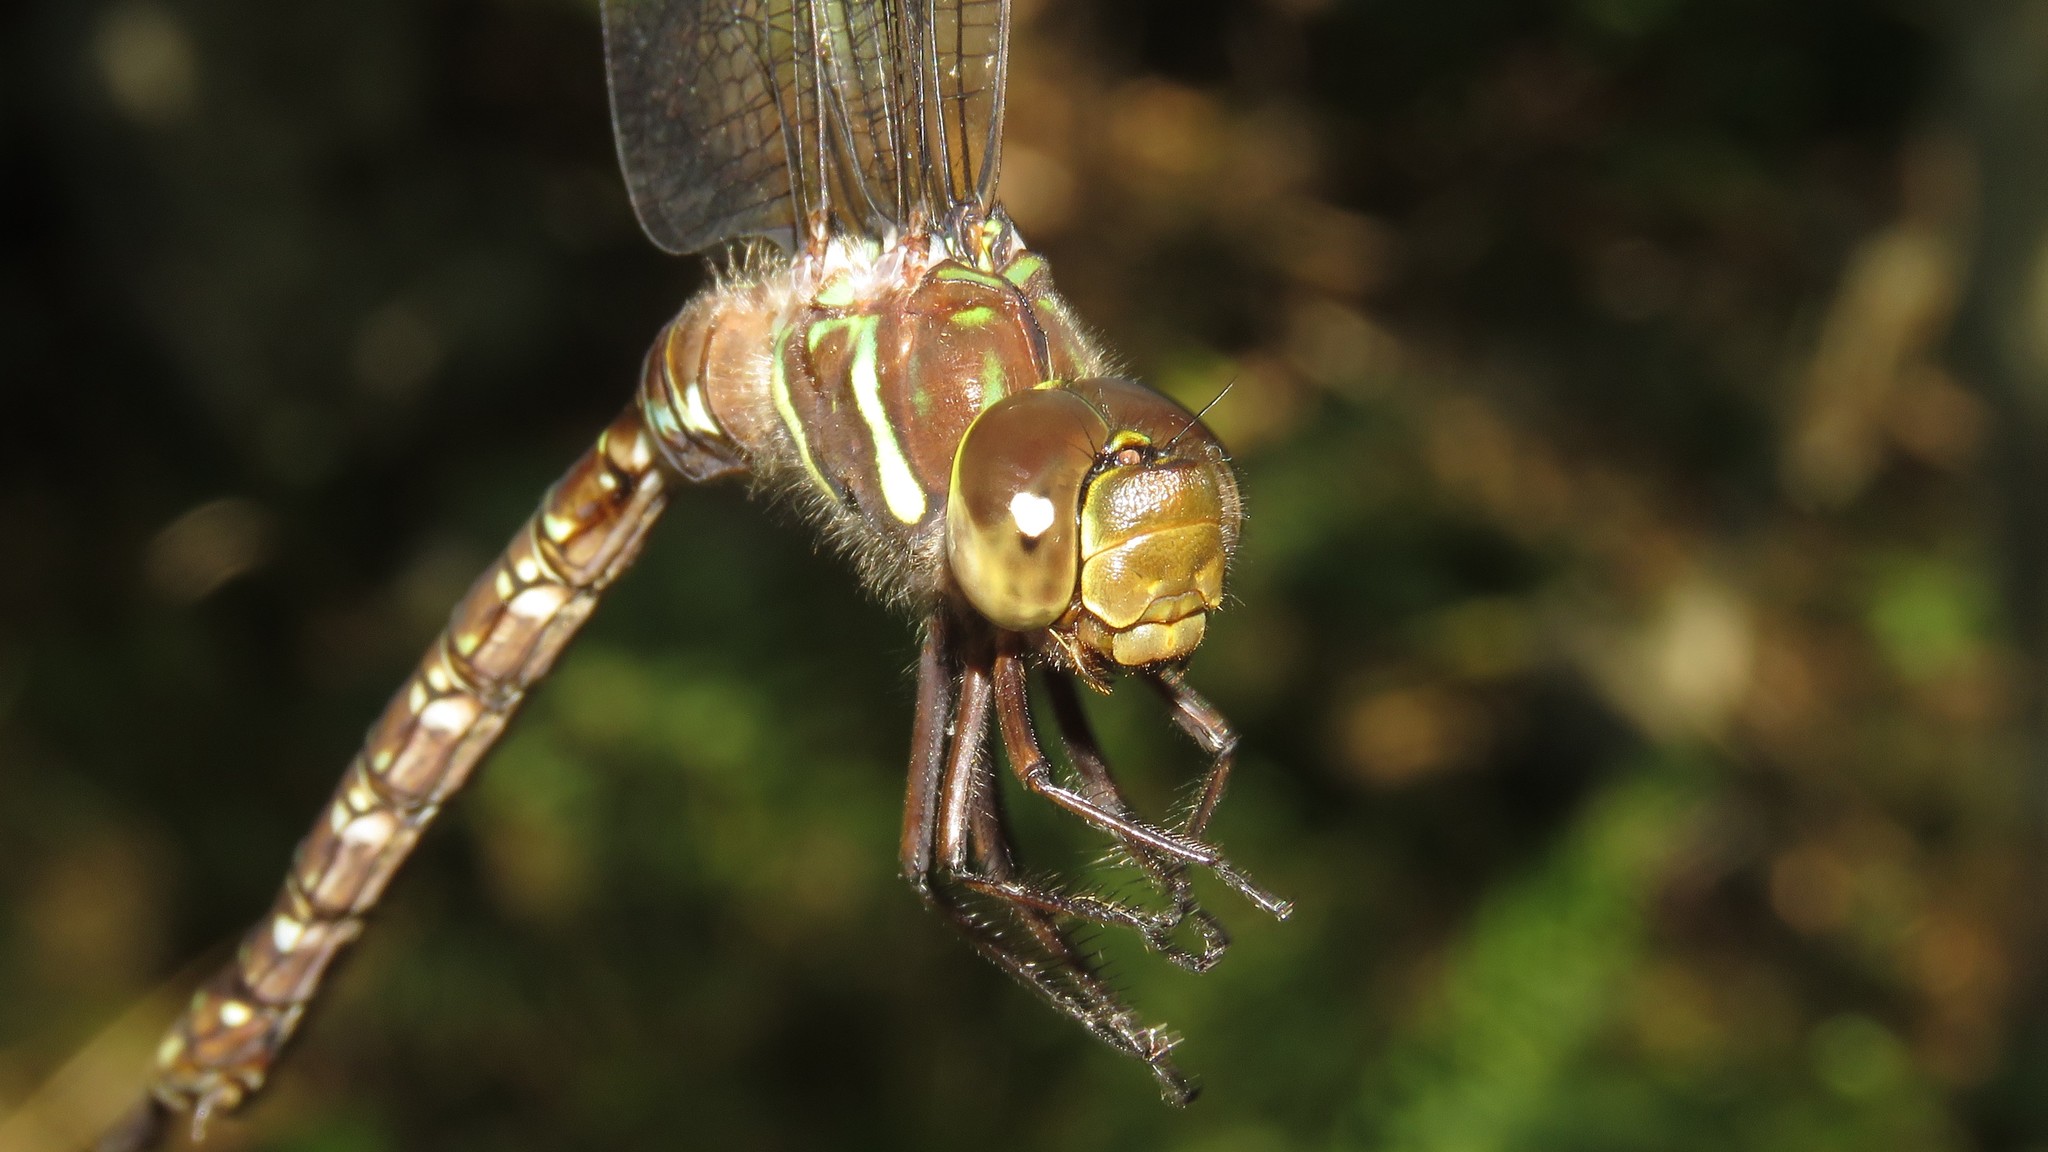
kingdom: Animalia
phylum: Arthropoda
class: Insecta
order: Odonata
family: Aeshnidae
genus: Aeshna
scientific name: Aeshna umbrosa
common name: Shadow darner
